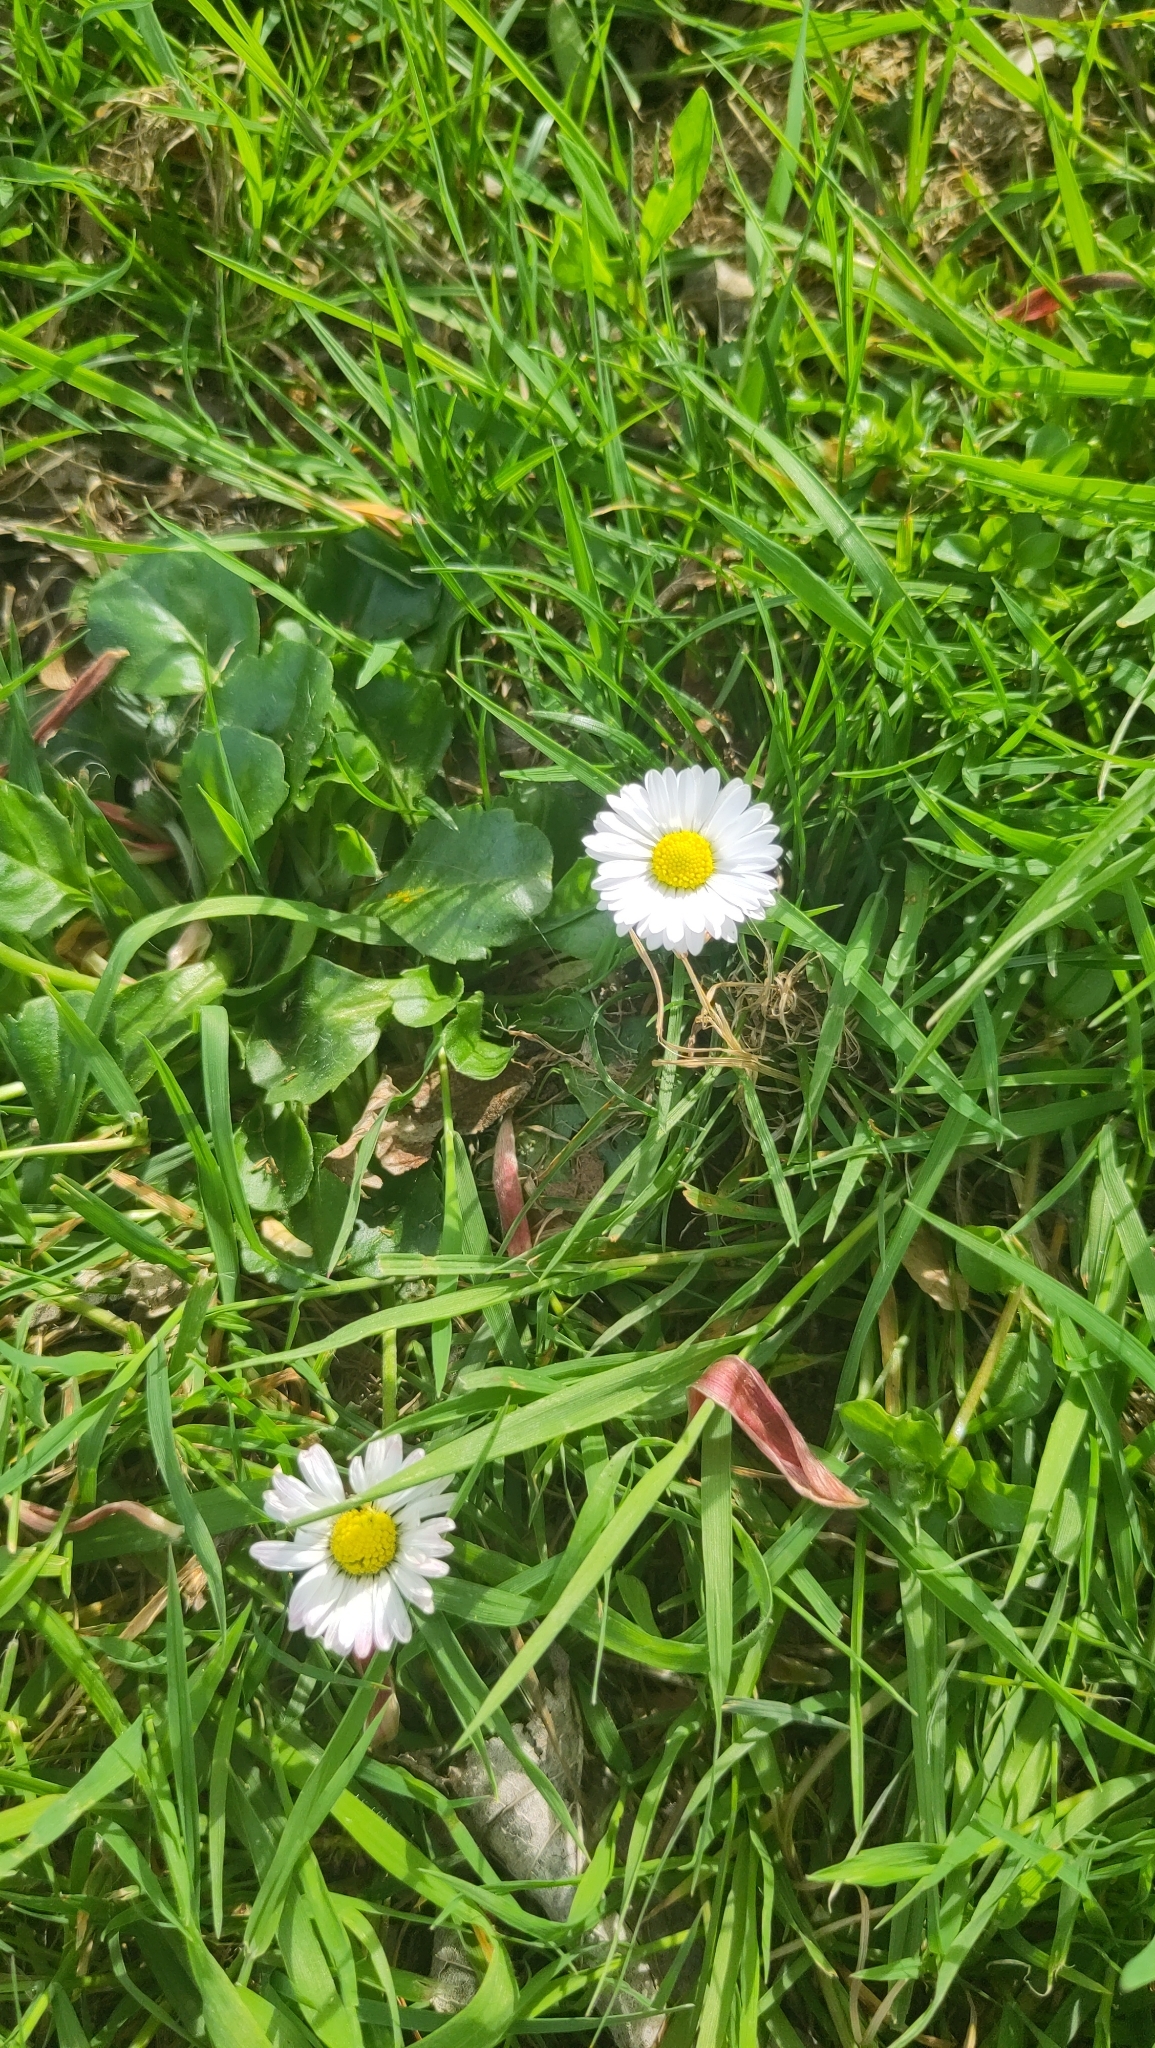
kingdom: Plantae
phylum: Tracheophyta
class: Magnoliopsida
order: Asterales
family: Asteraceae
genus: Bellis
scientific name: Bellis perennis
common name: Lawndaisy
